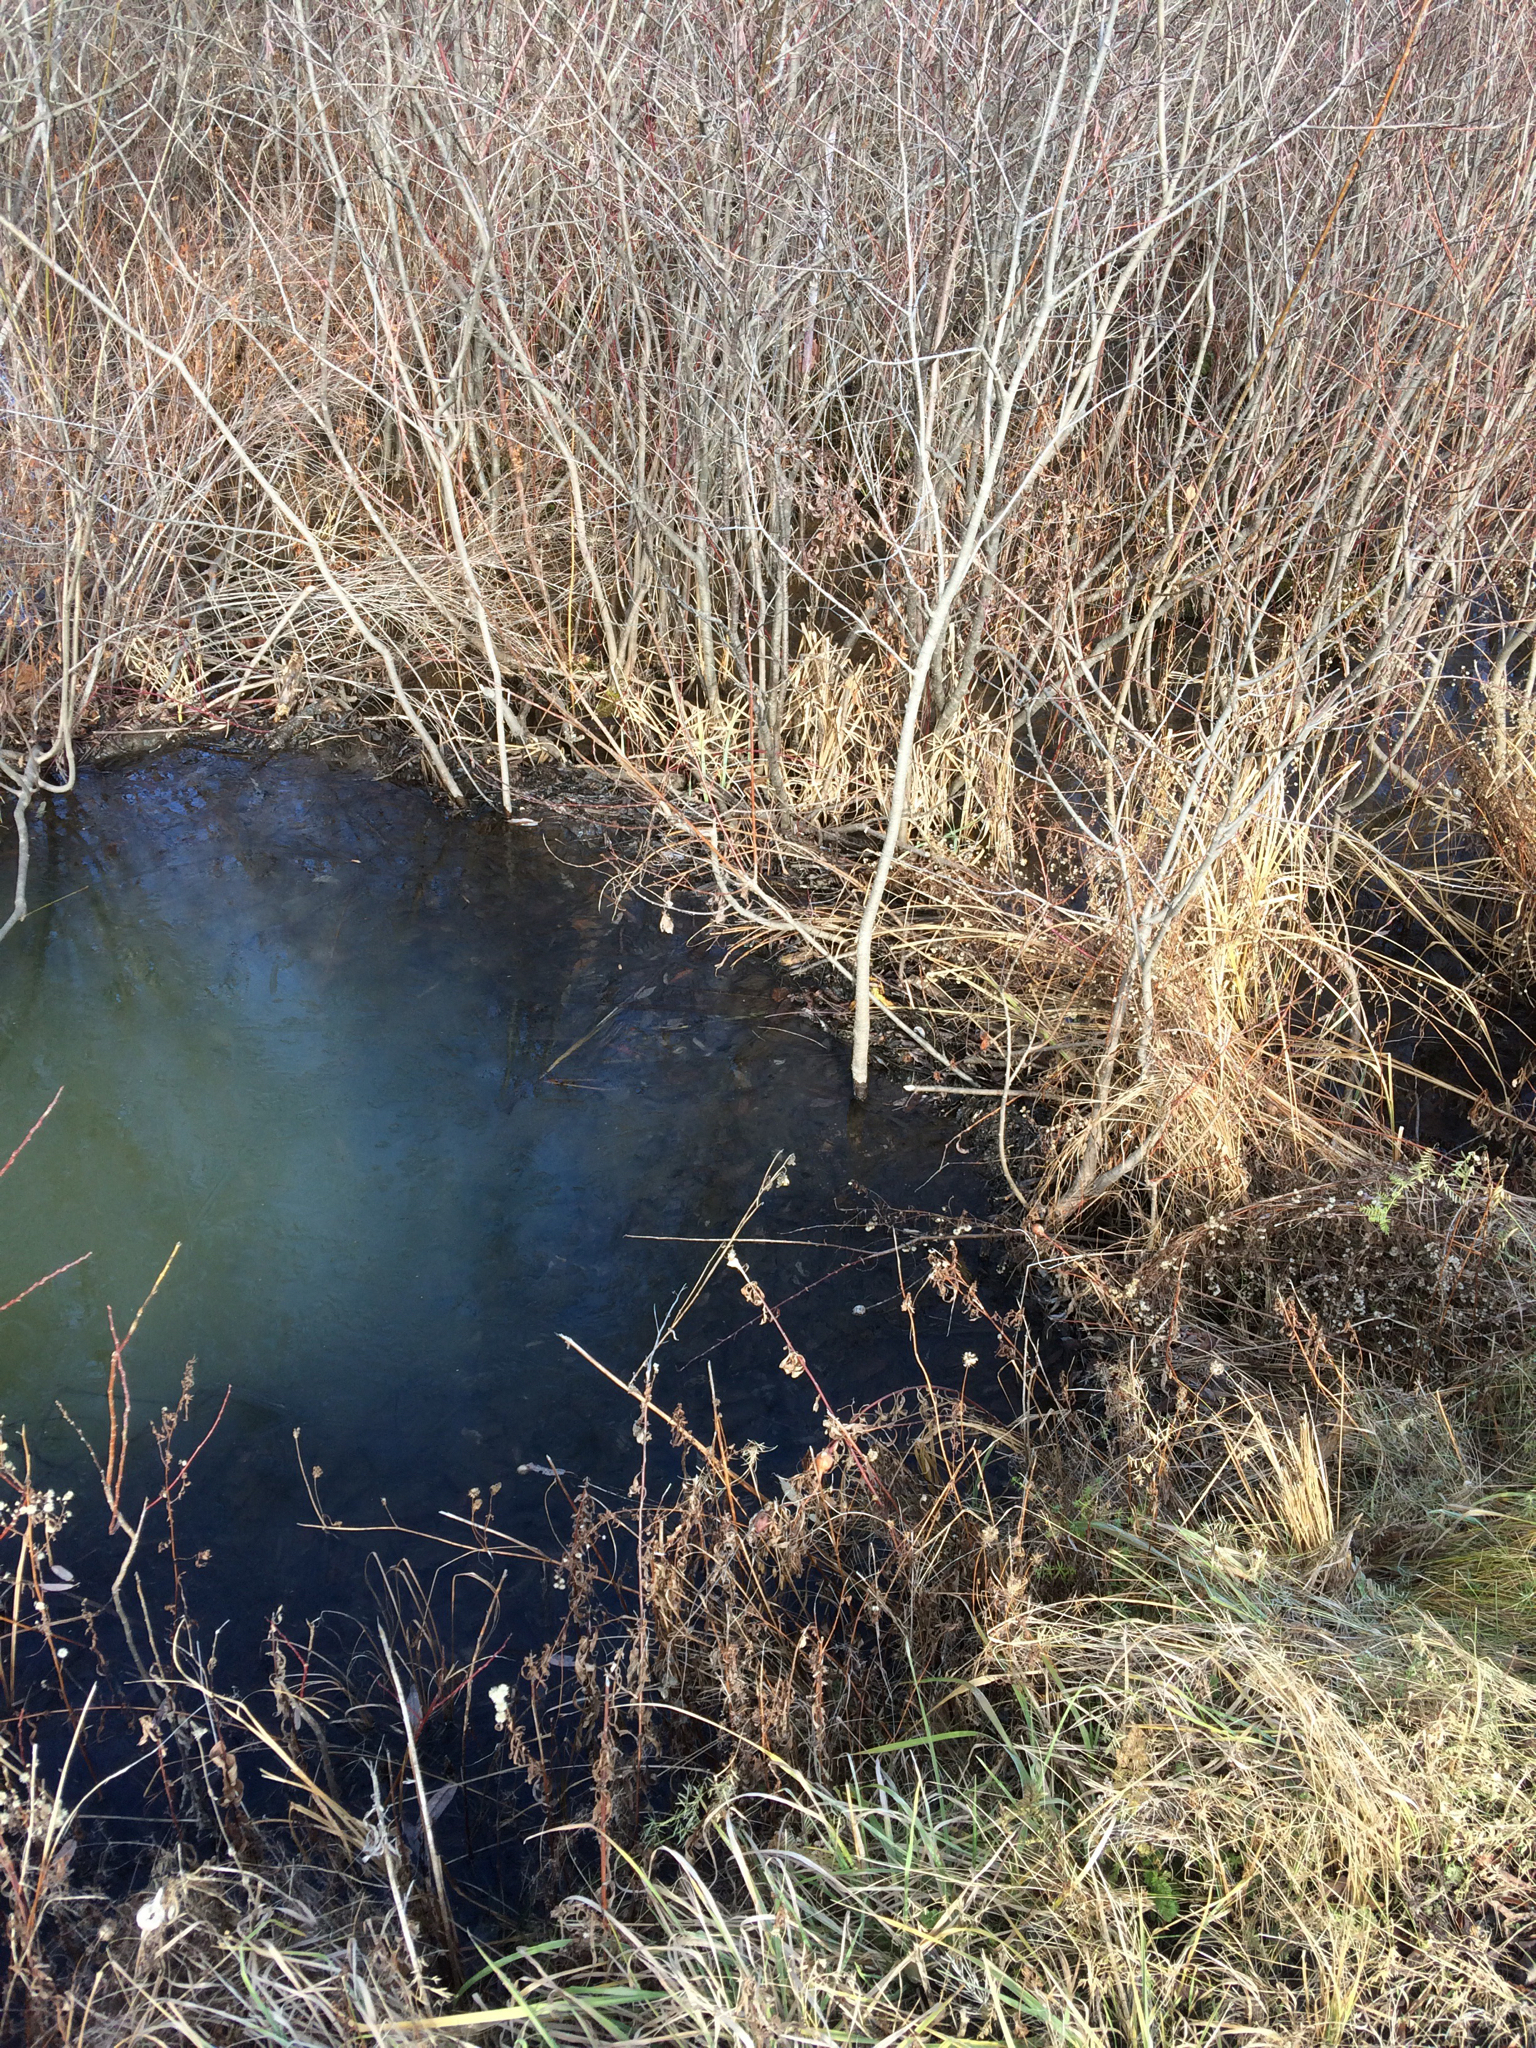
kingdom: Animalia
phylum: Chordata
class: Mammalia
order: Rodentia
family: Castoridae
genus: Castor
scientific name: Castor canadensis
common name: American beaver
